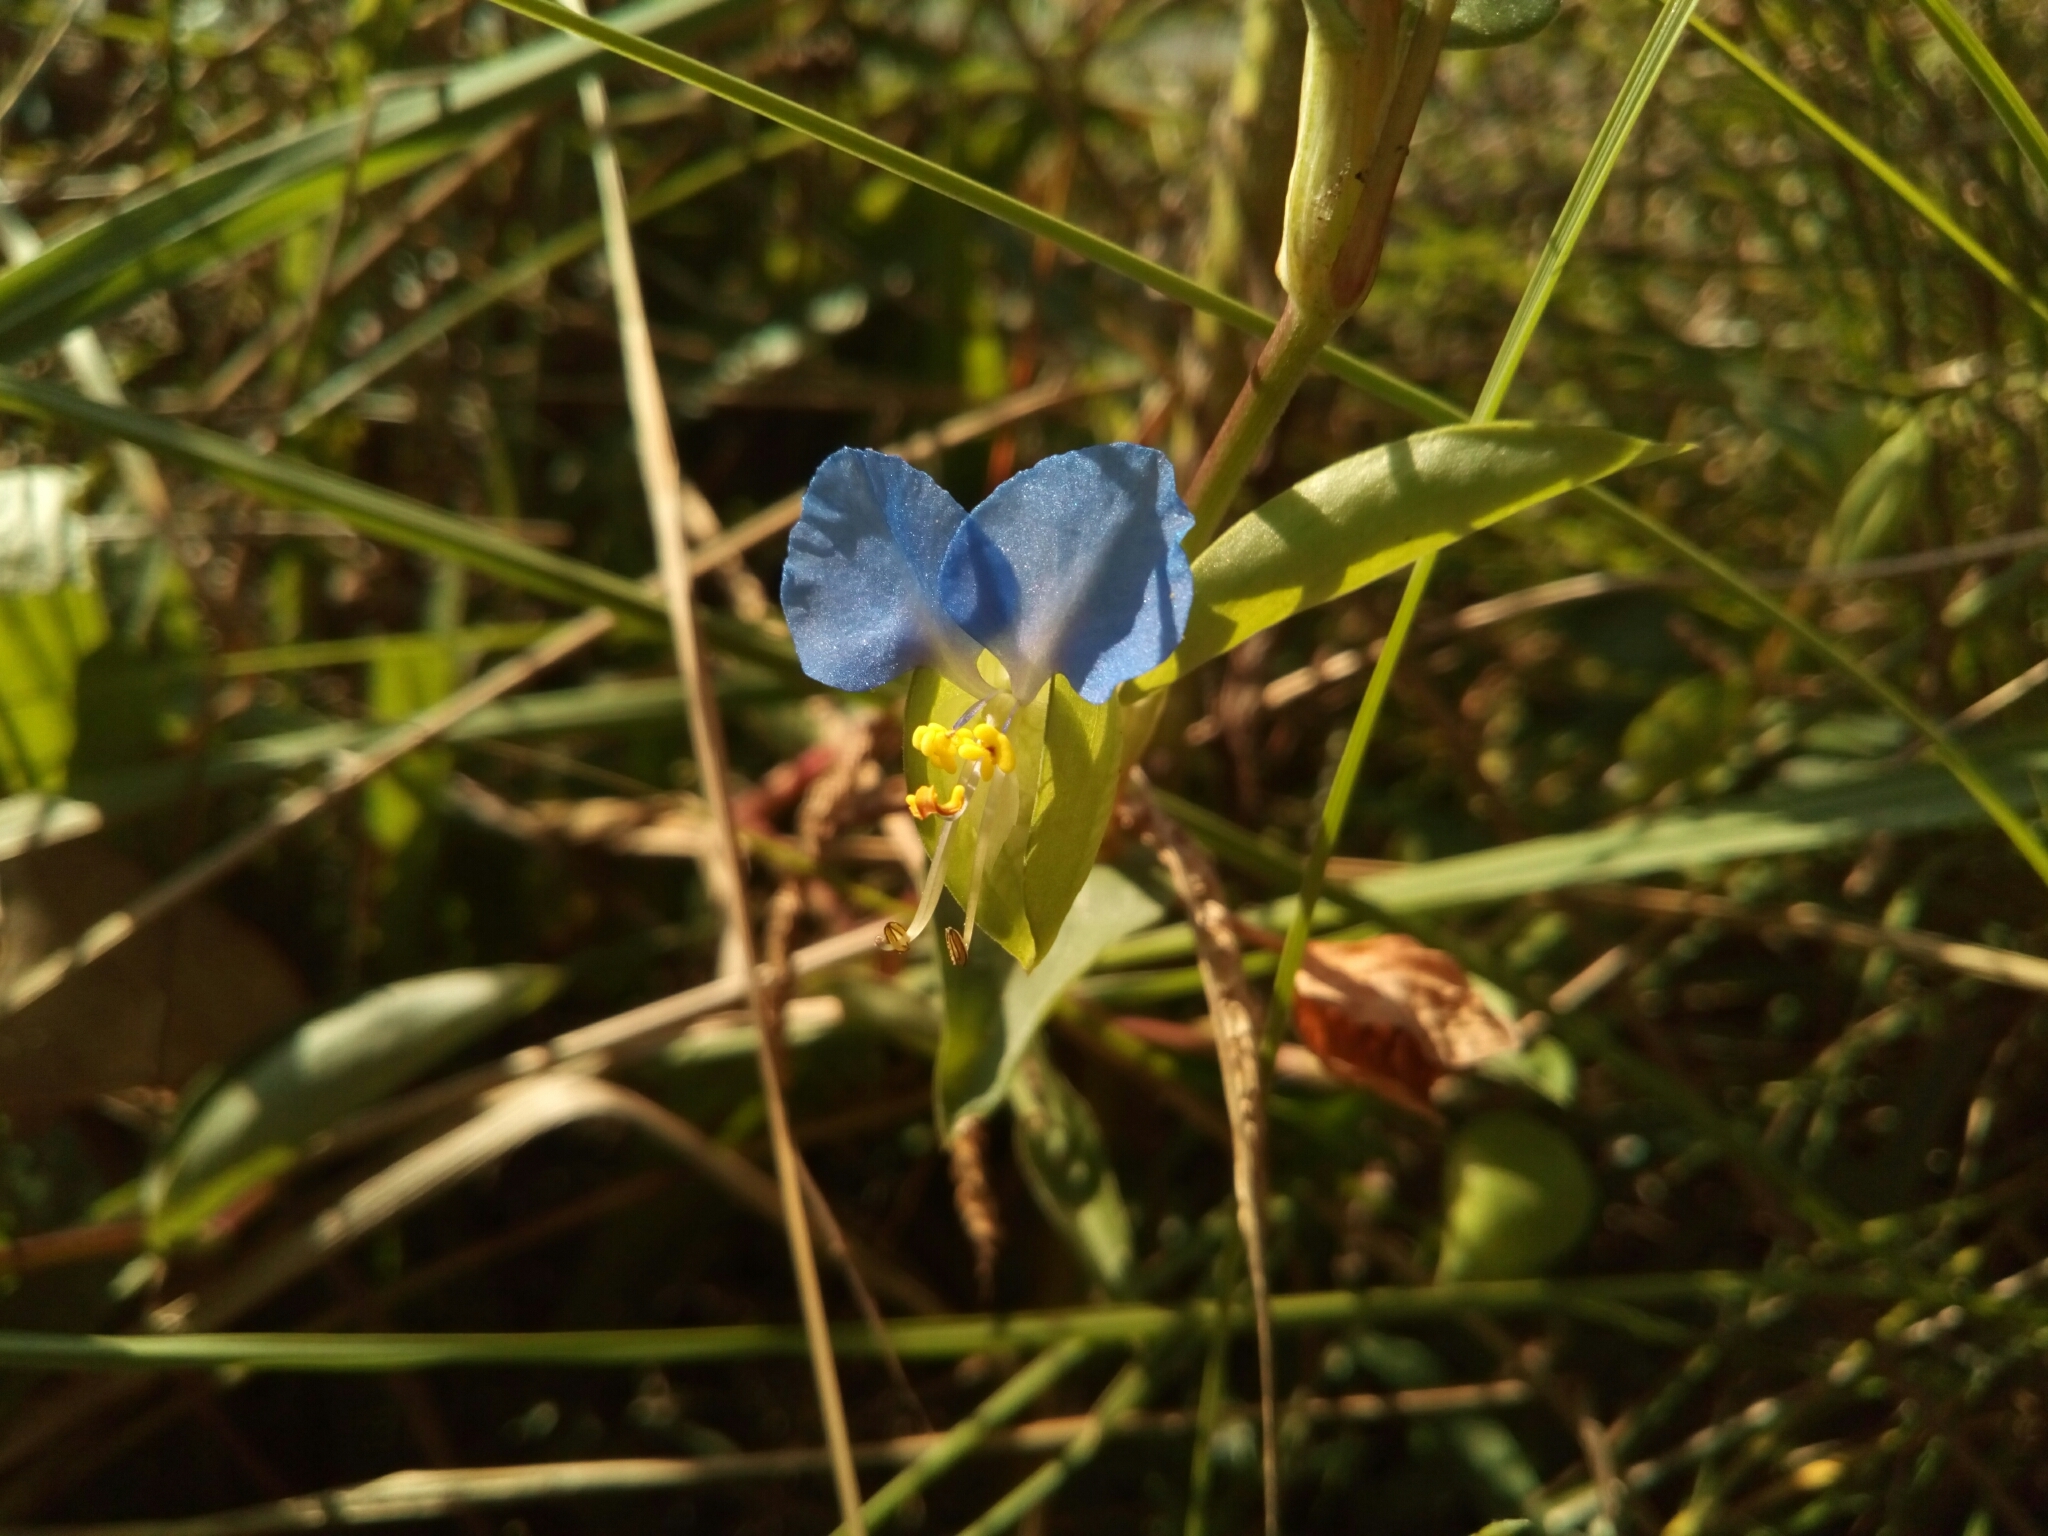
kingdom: Plantae
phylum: Tracheophyta
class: Liliopsida
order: Commelinales
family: Commelinaceae
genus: Commelina
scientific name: Commelina communis
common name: Asiatic dayflower
